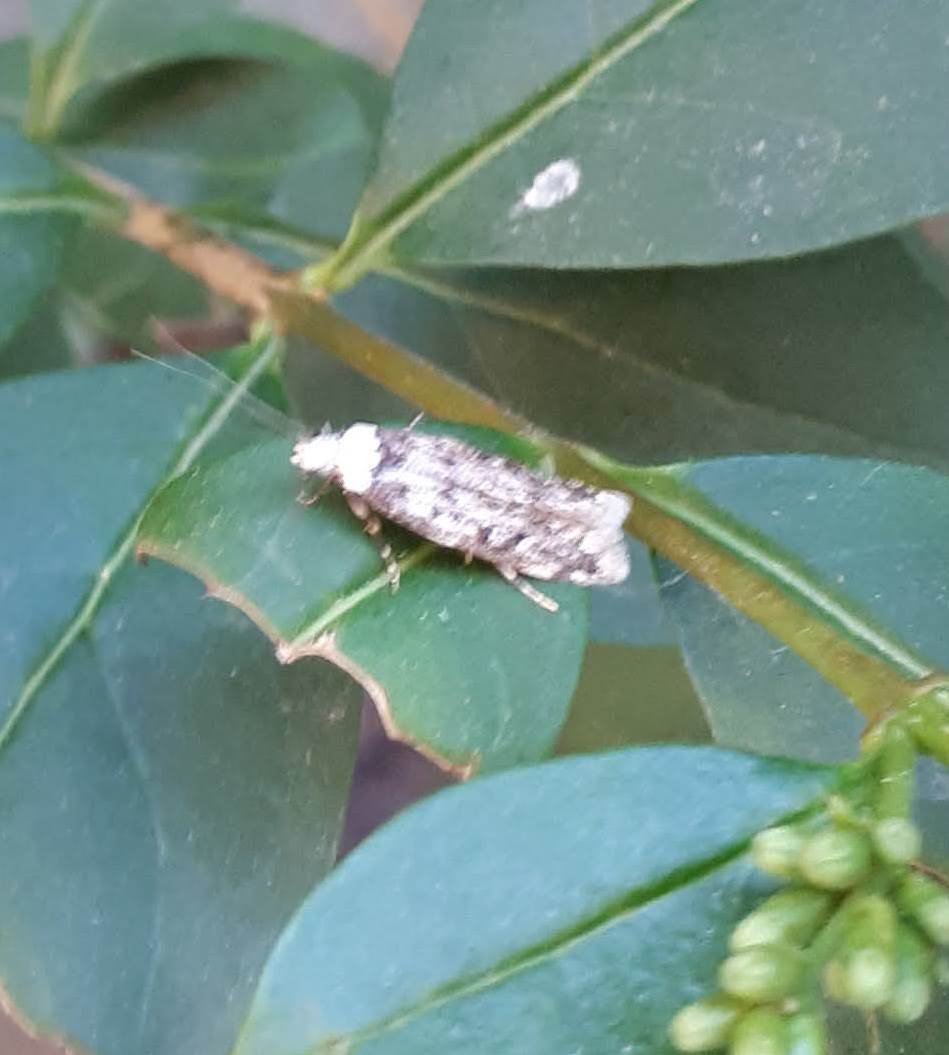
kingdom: Animalia
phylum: Arthropoda
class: Insecta
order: Lepidoptera
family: Oecophoridae
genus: Endrosis
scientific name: Endrosis sarcitrella
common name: White-shouldered house moth
